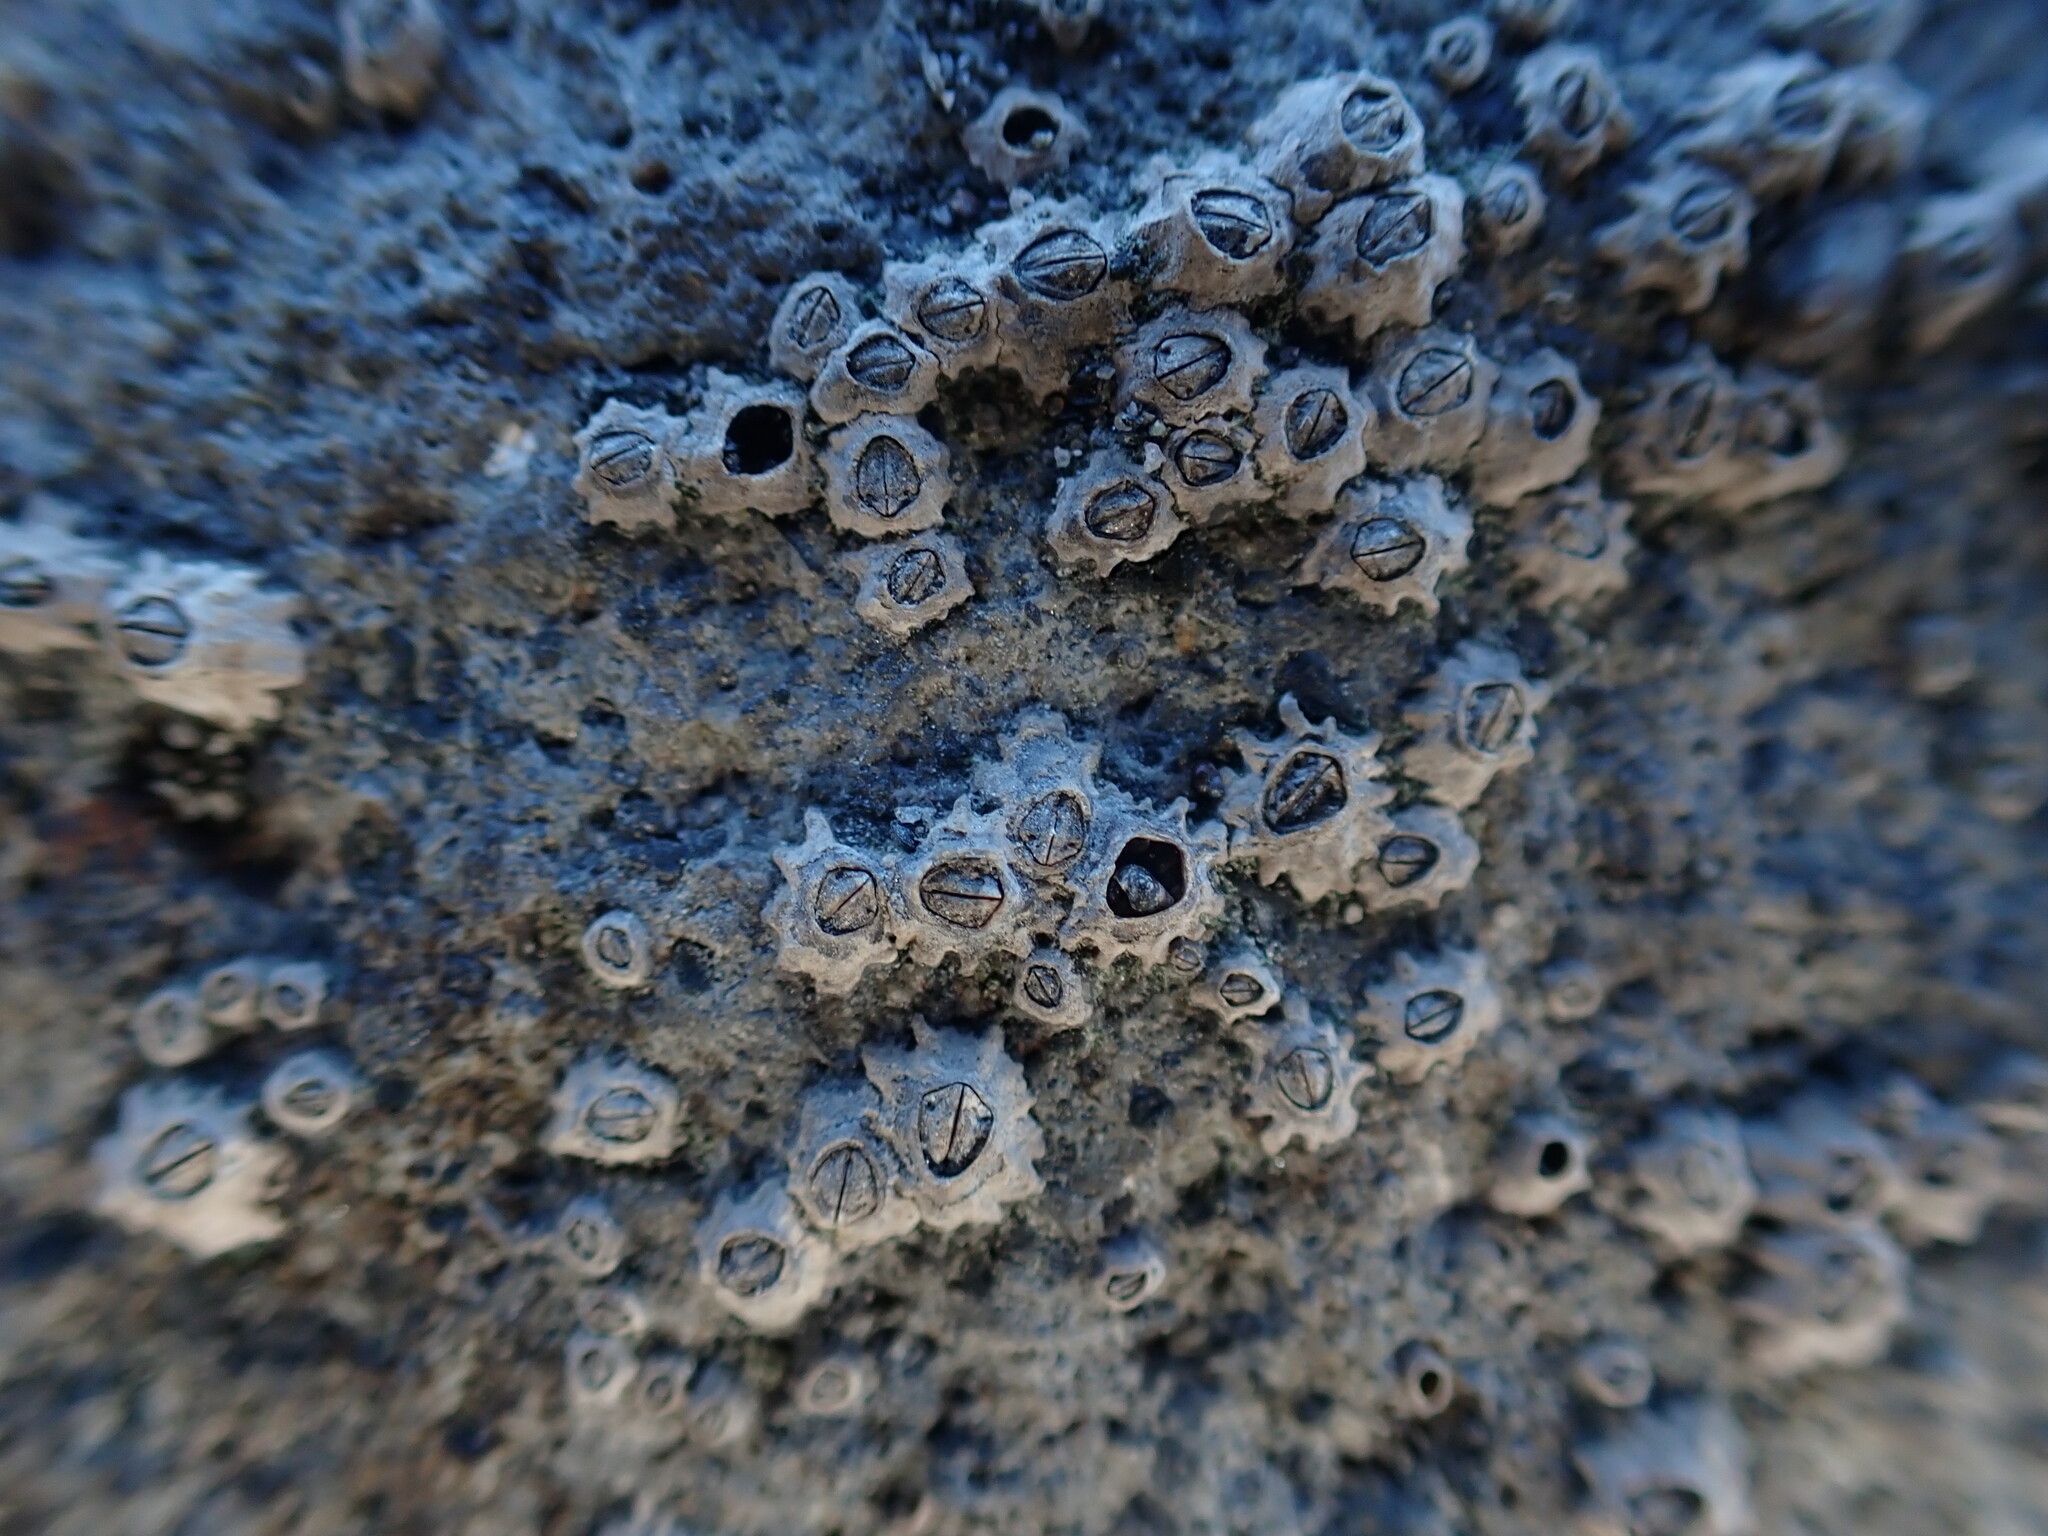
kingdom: Animalia
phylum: Arthropoda
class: Maxillopoda
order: Sessilia
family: Chthamalidae
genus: Chamaesipho
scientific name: Chamaesipho columna
